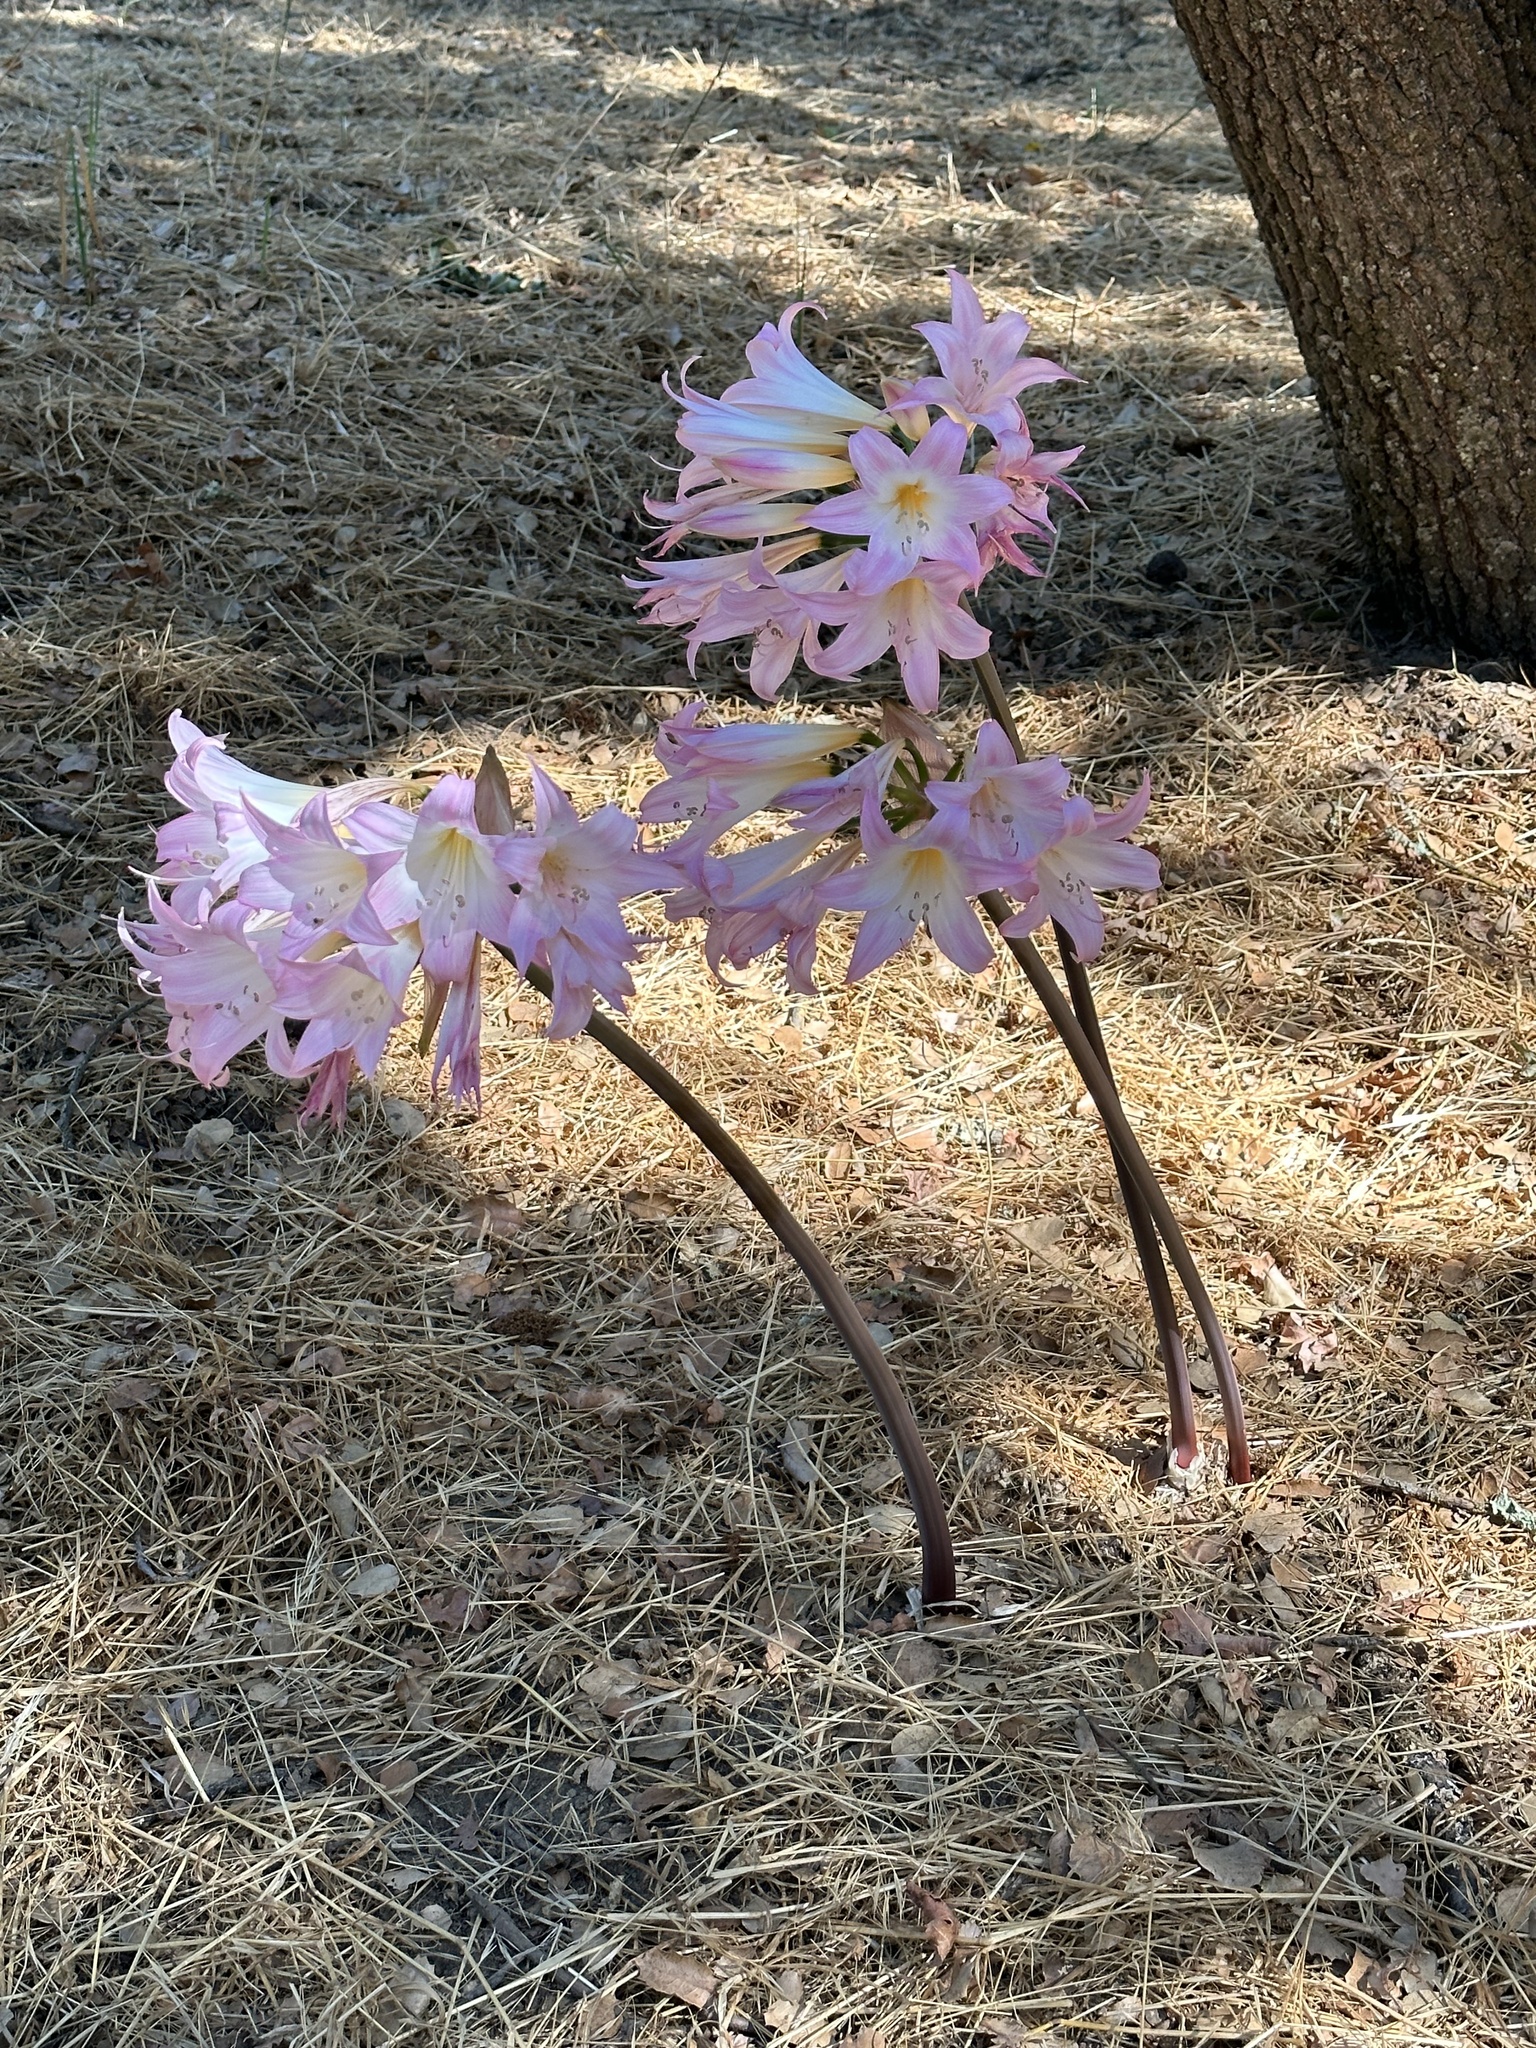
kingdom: Plantae
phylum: Tracheophyta
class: Liliopsida
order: Asparagales
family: Amaryllidaceae
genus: Amaryllis
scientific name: Amaryllis belladonna
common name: Jersey lily
